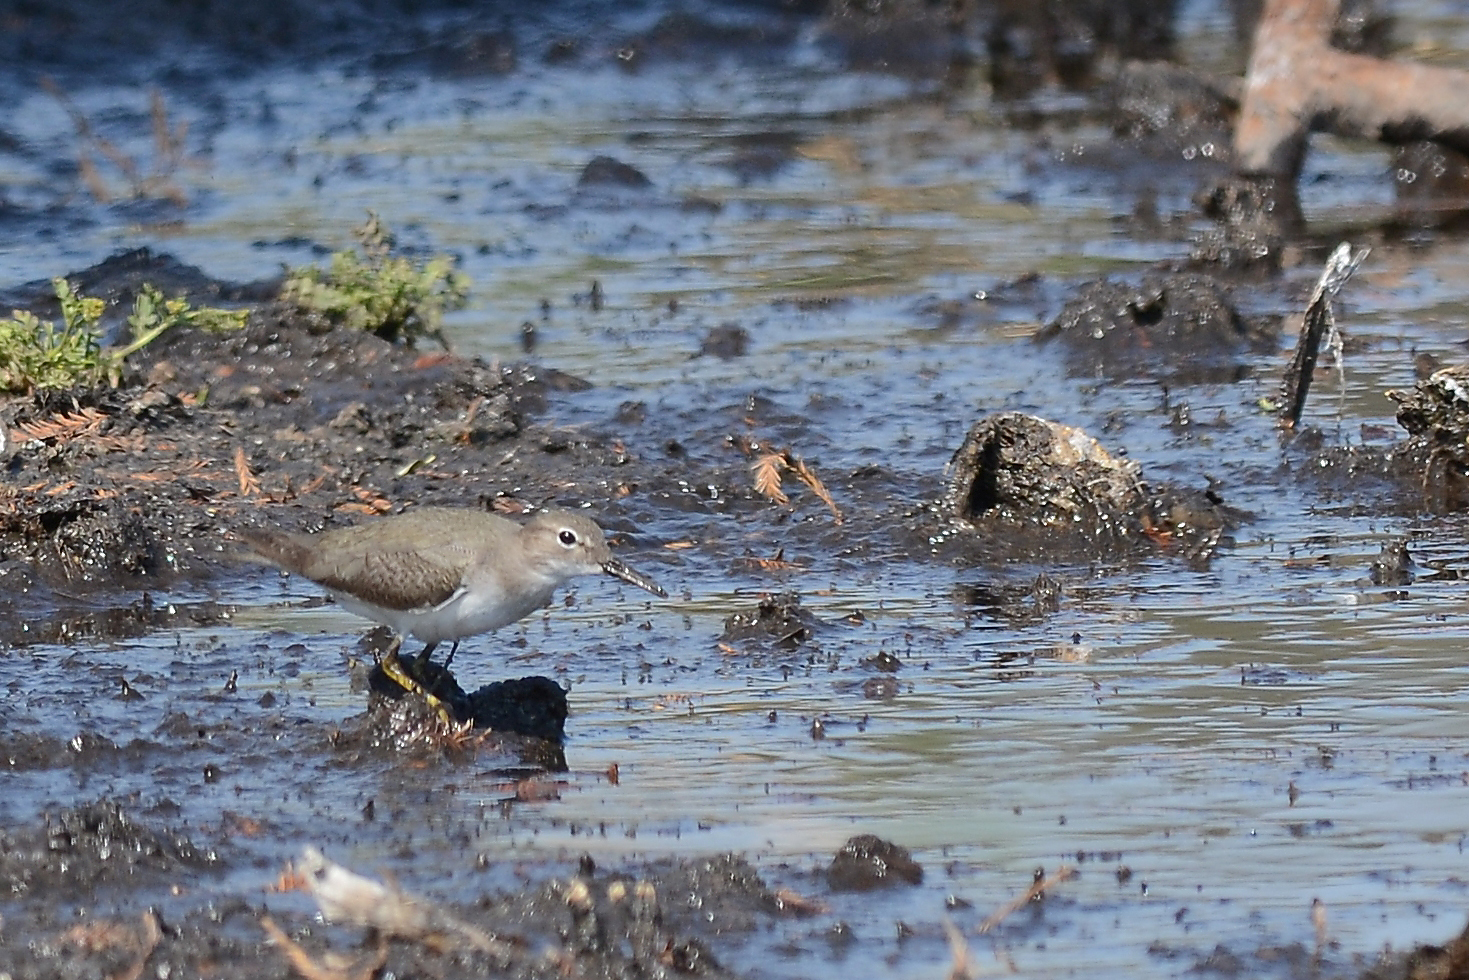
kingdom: Animalia
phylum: Chordata
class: Aves
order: Charadriiformes
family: Scolopacidae
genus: Actitis
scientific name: Actitis macularius
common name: Spotted sandpiper
